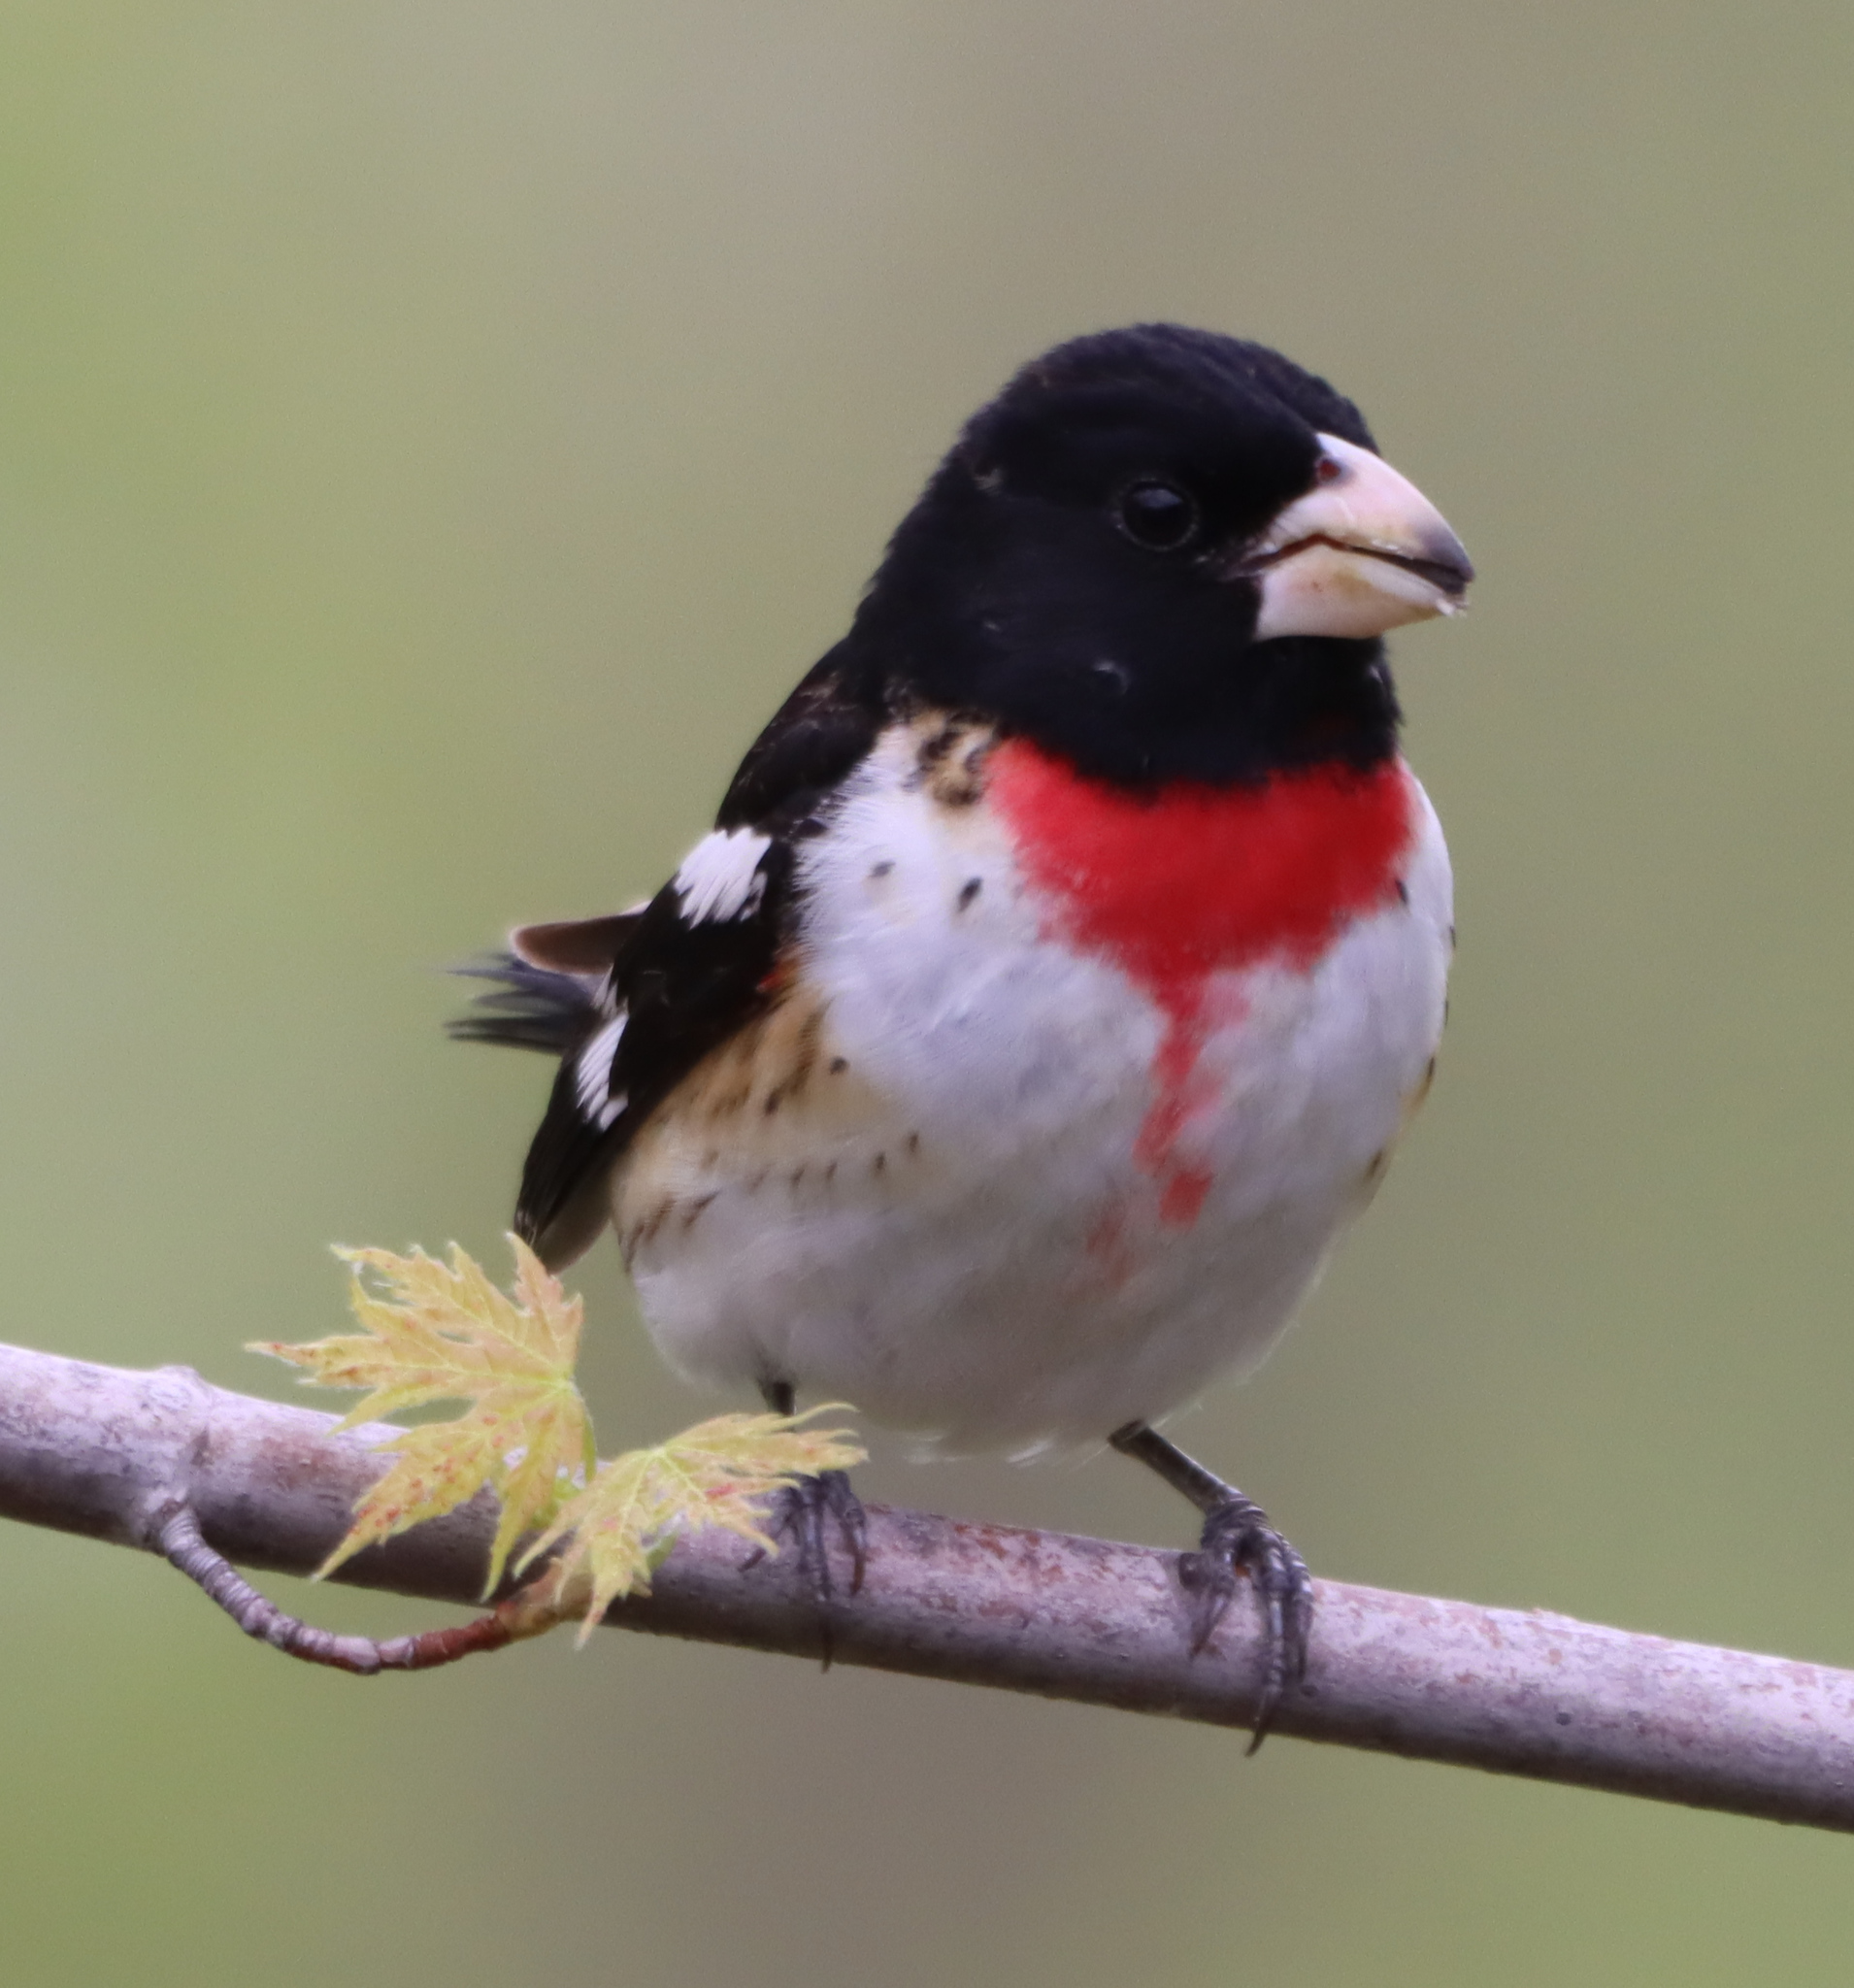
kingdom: Animalia
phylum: Chordata
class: Aves
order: Passeriformes
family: Cardinalidae
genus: Pheucticus
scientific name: Pheucticus ludovicianus
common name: Rose-breasted grosbeak
